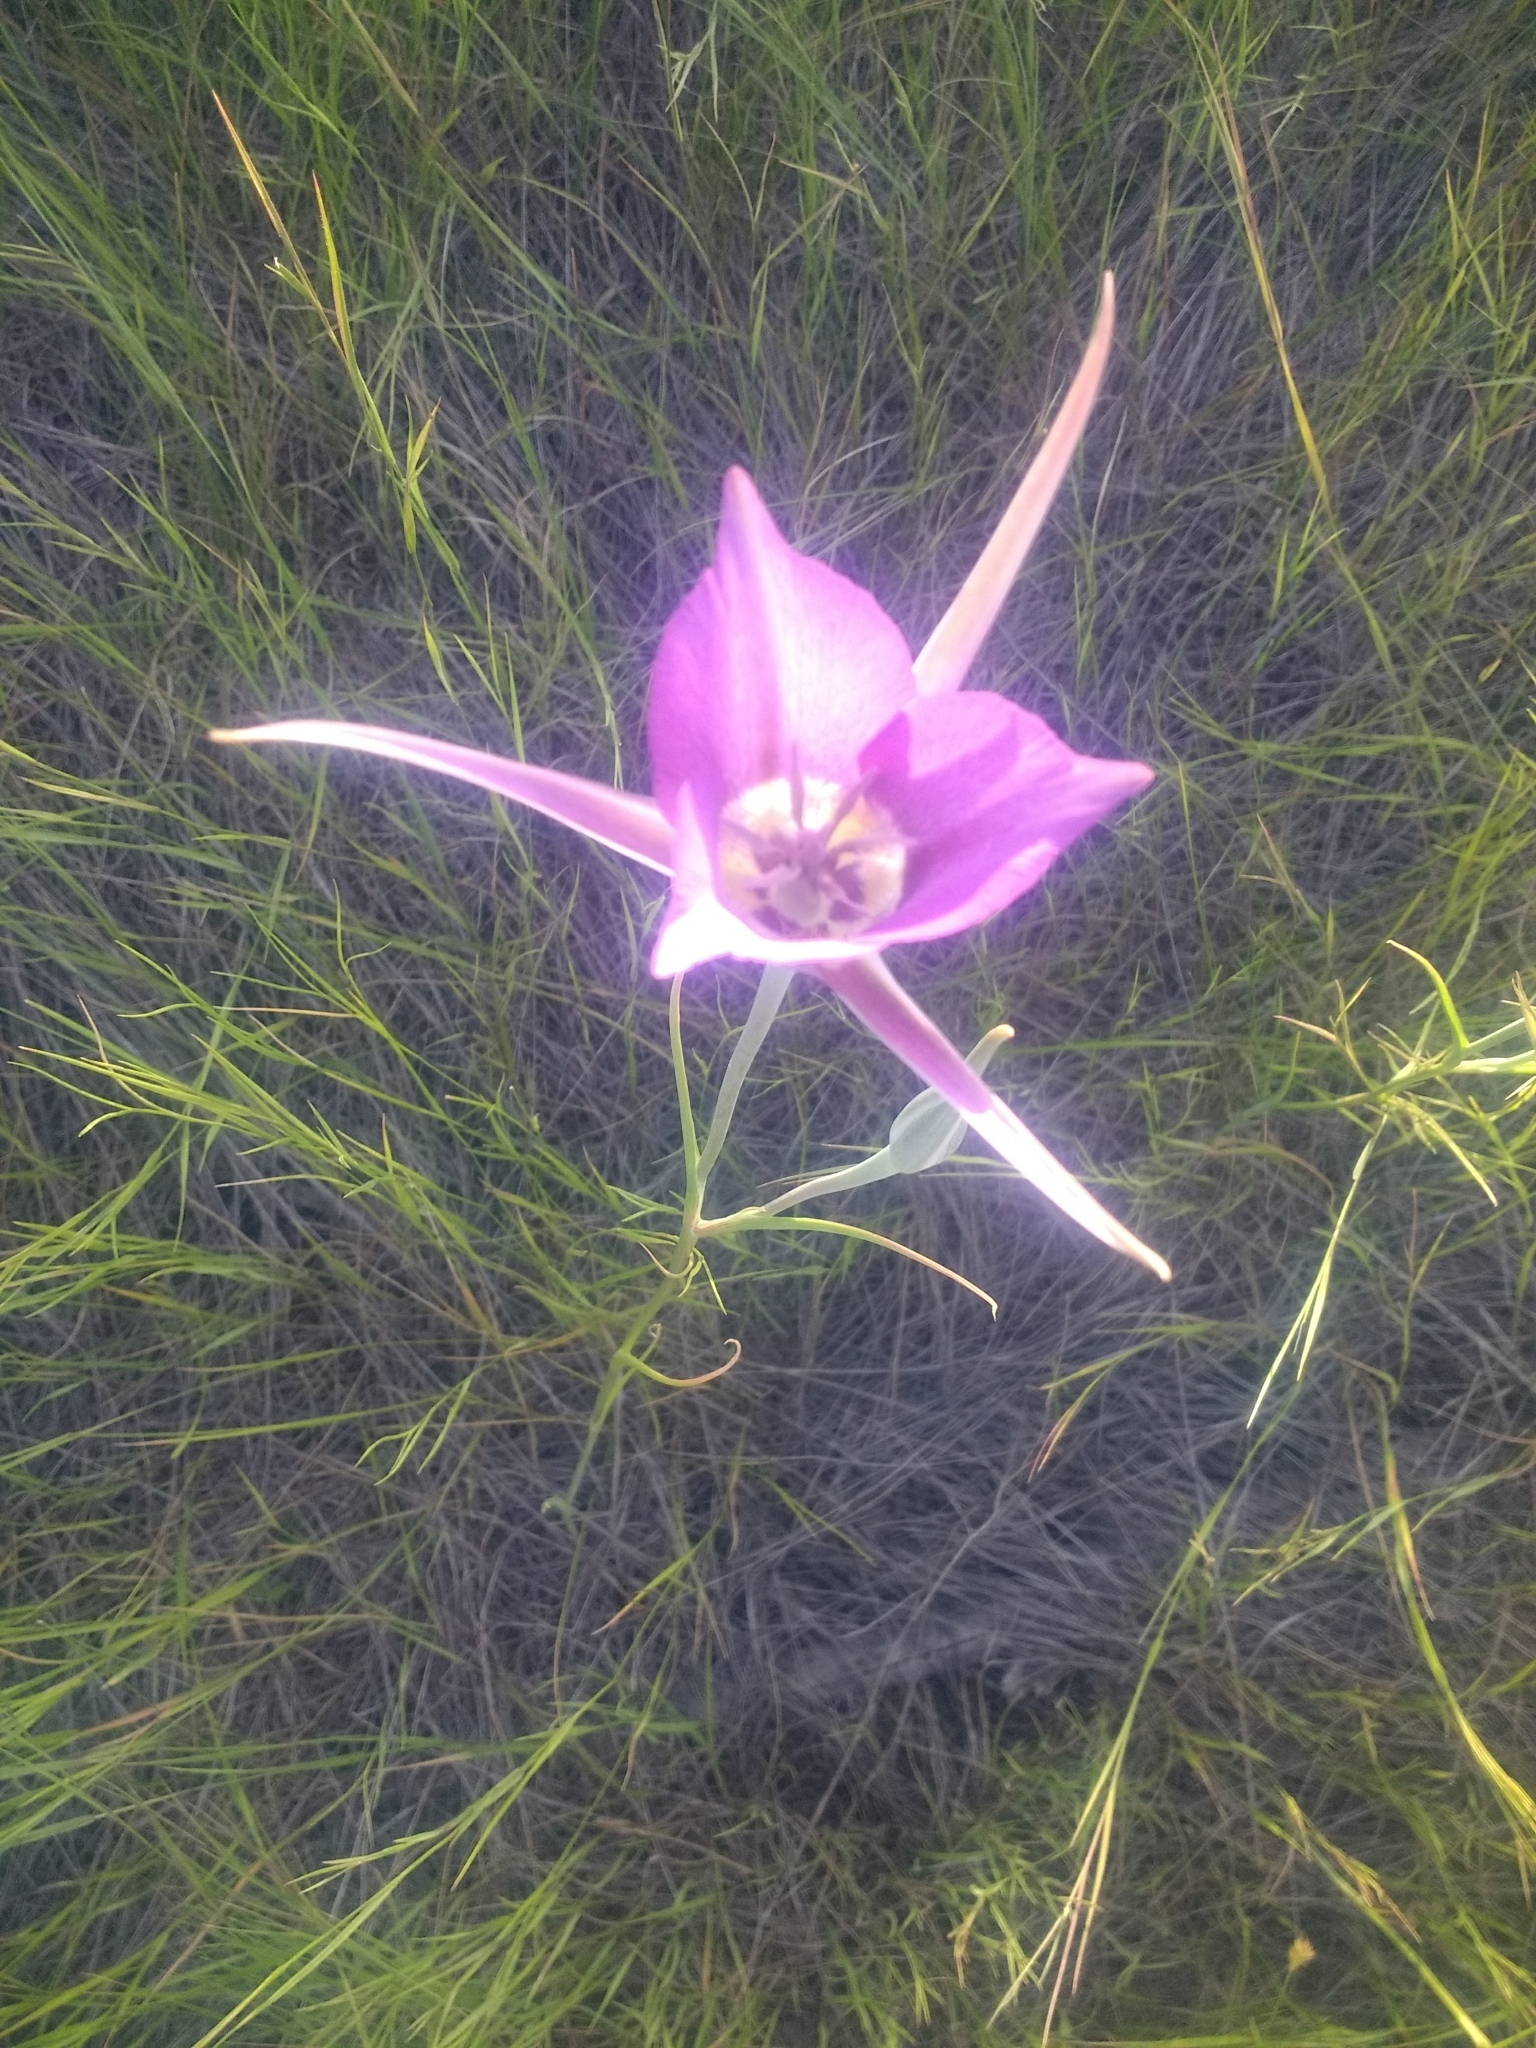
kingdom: Plantae
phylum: Tracheophyta
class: Liliopsida
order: Liliales
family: Liliaceae
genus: Calochortus
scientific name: Calochortus macrocarpus
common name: Green-band mariposa lily
